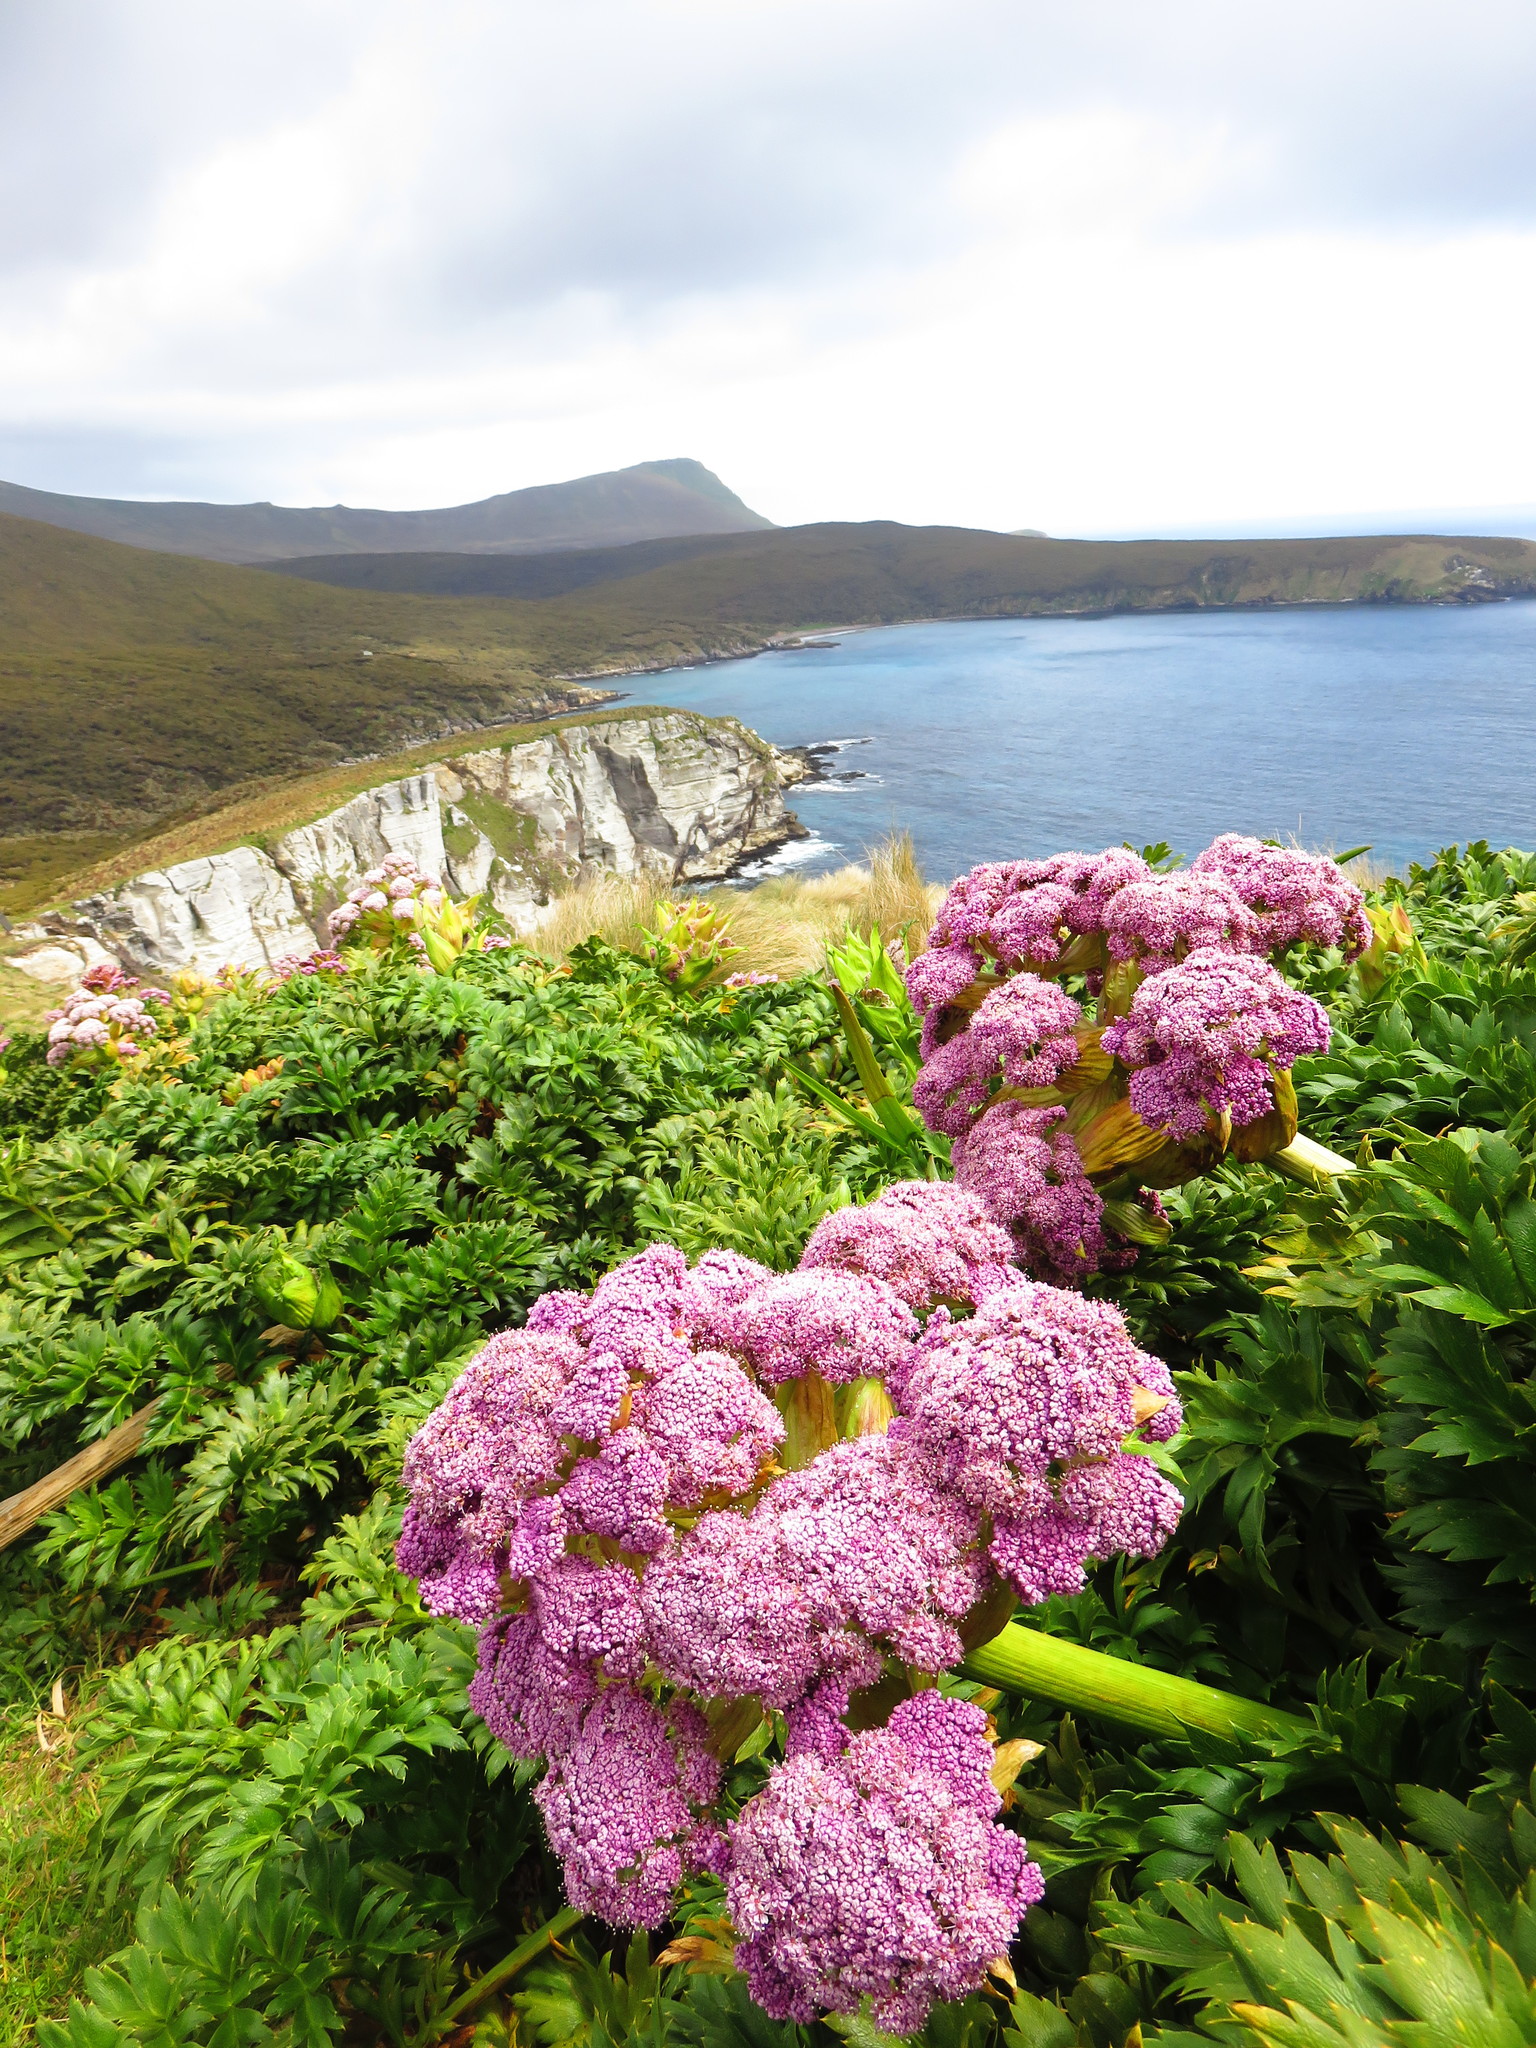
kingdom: Plantae
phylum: Tracheophyta
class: Magnoliopsida
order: Apiales
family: Apiaceae
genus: Anisotome
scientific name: Anisotome latifolia
